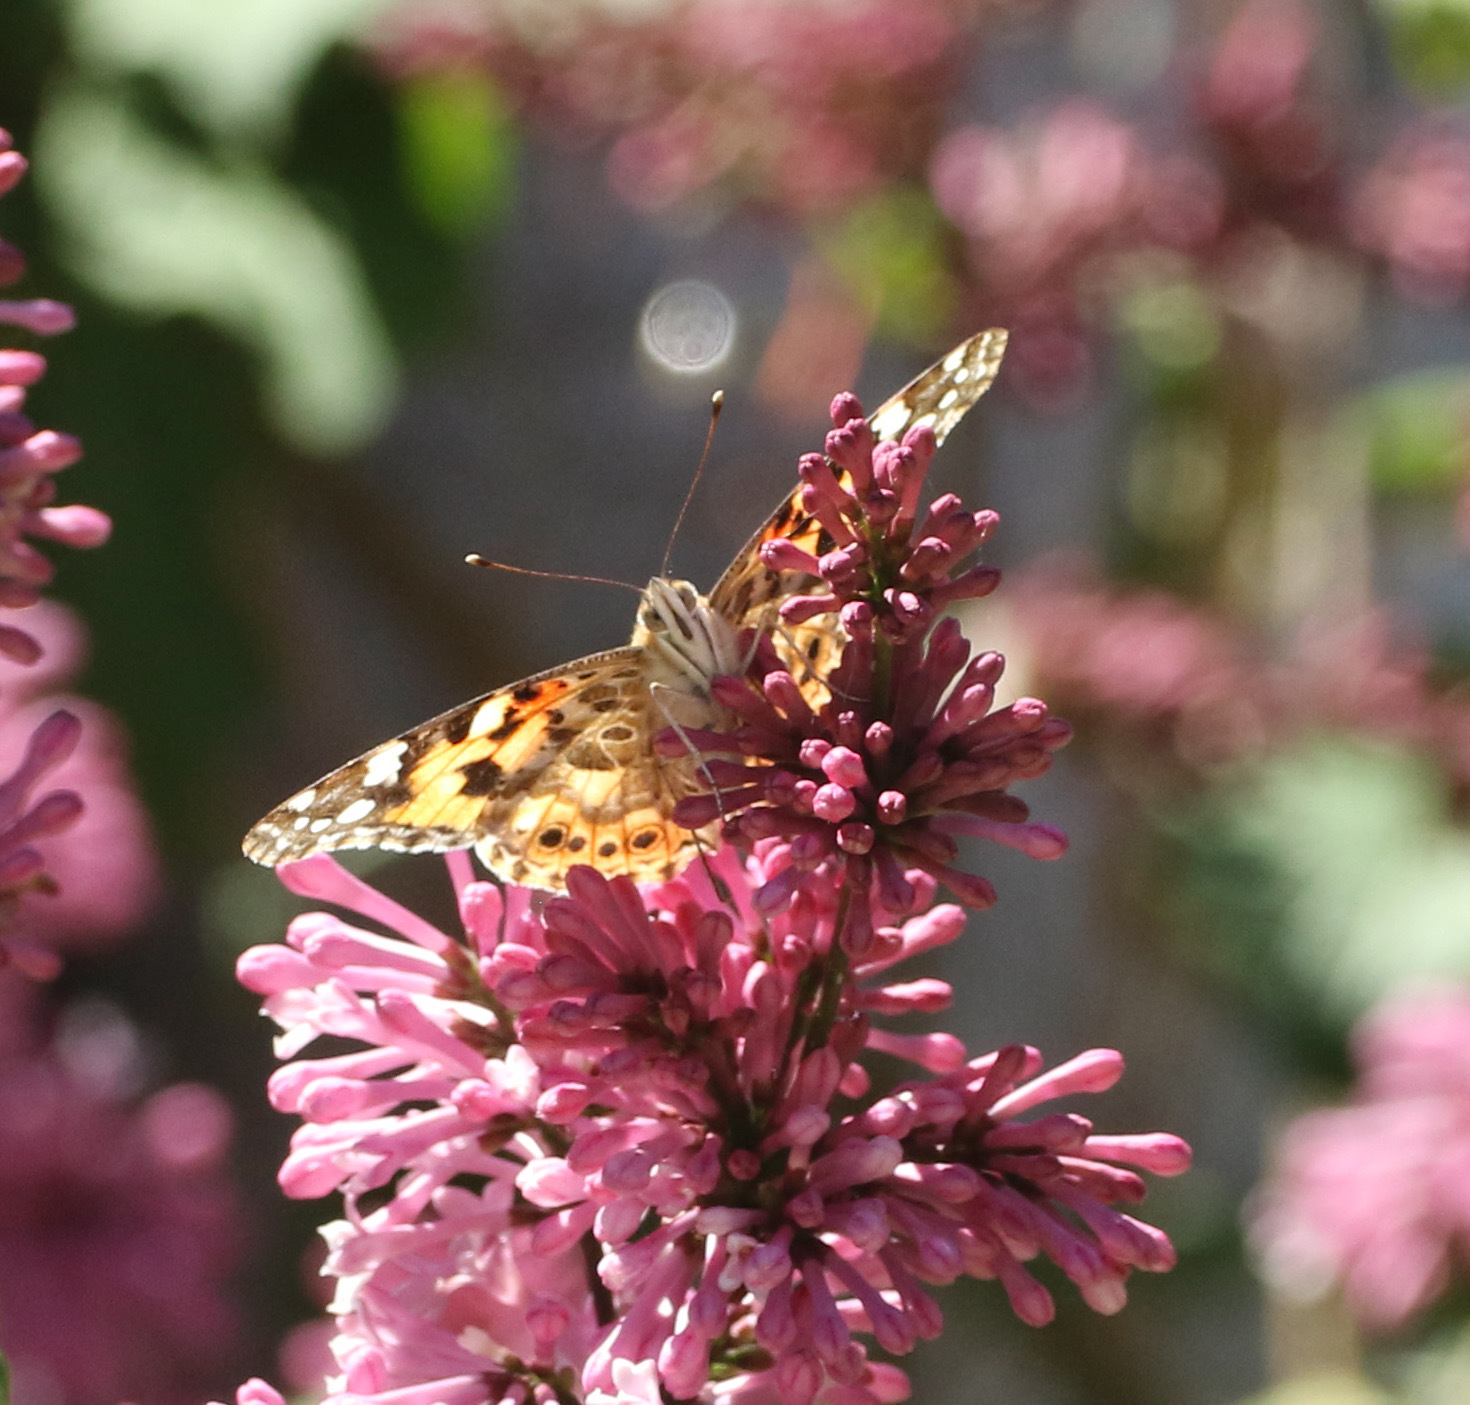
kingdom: Animalia
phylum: Arthropoda
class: Insecta
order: Lepidoptera
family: Nymphalidae
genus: Vanessa
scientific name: Vanessa cardui
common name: Painted lady
